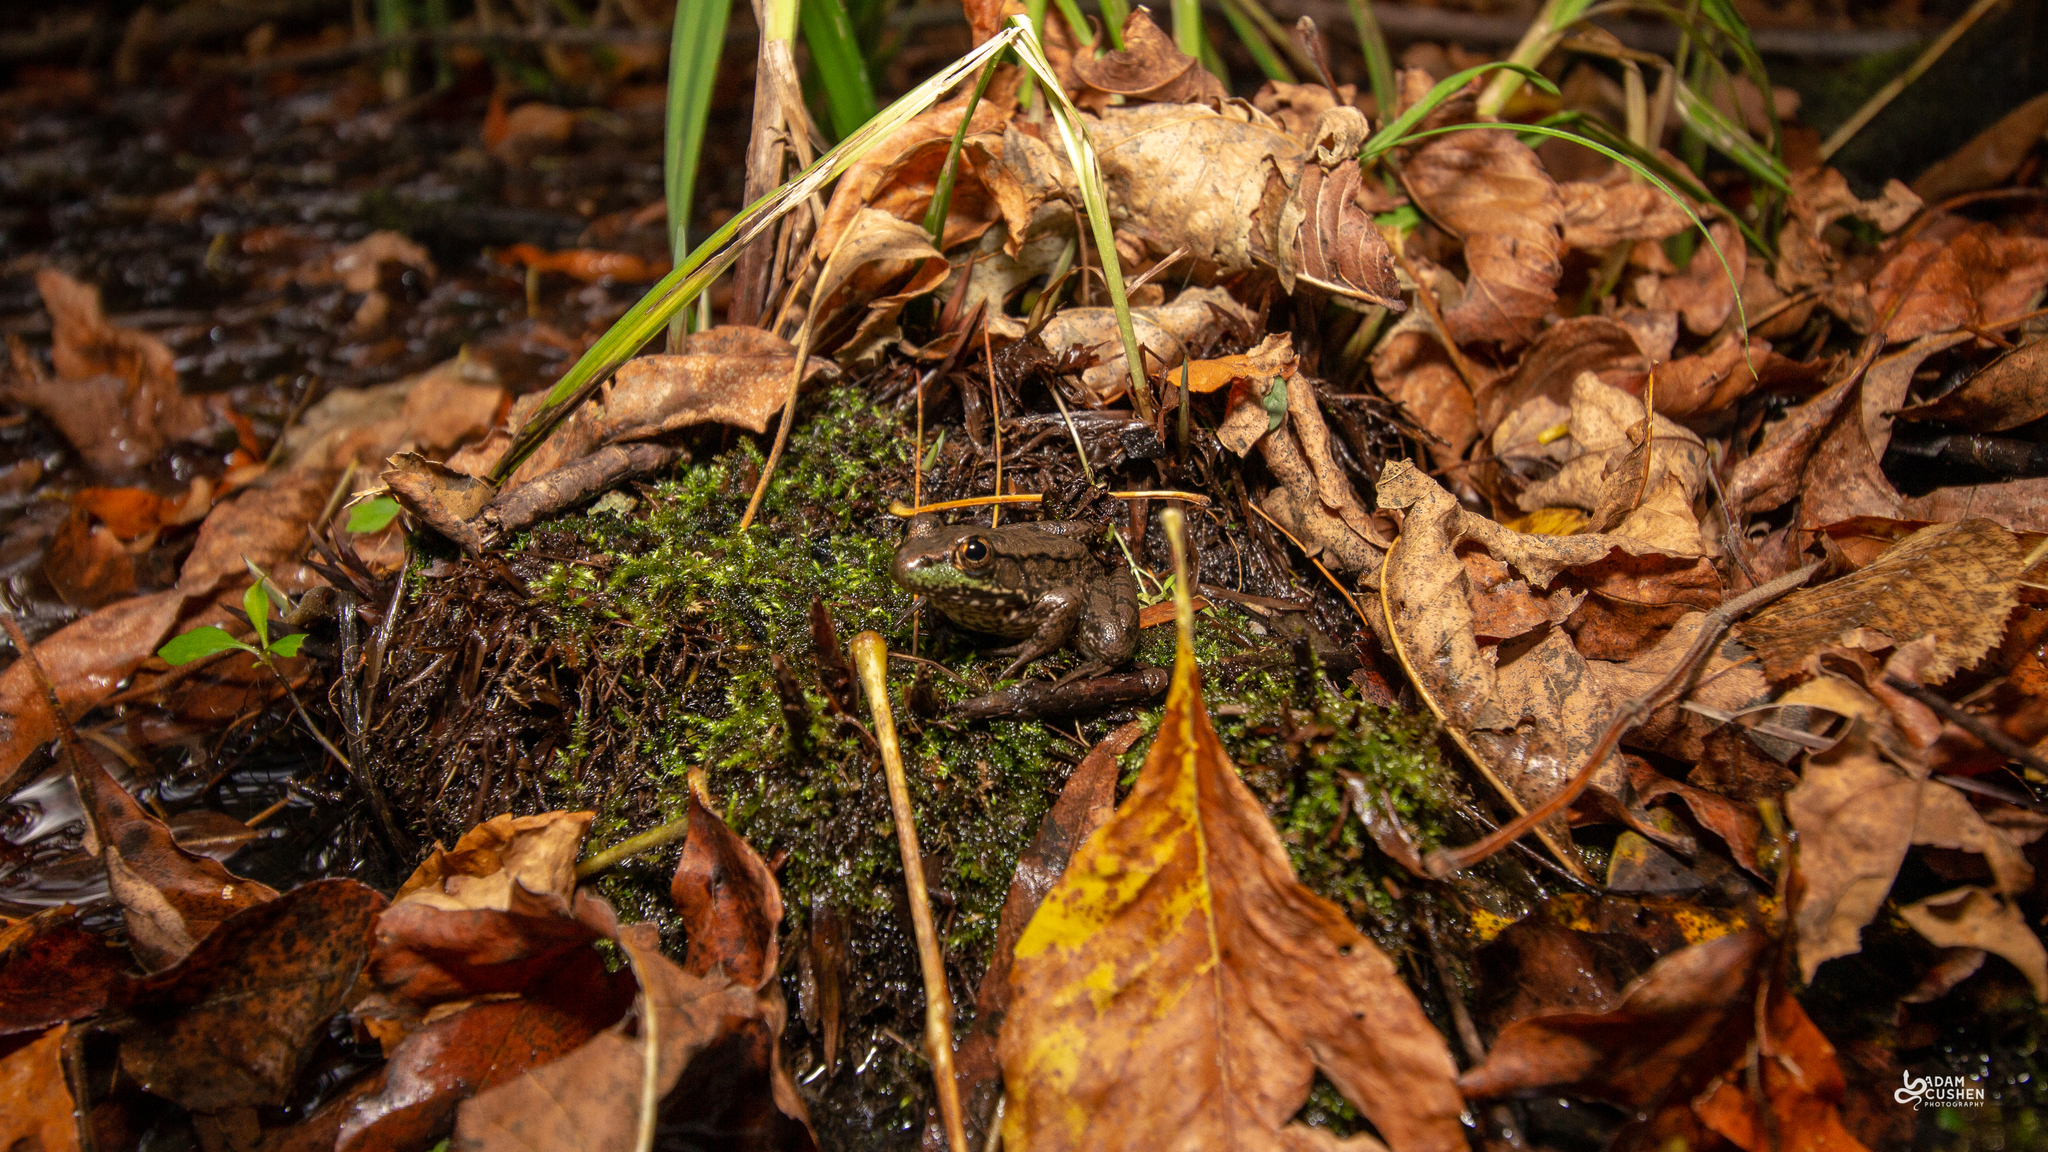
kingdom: Animalia
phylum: Chordata
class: Amphibia
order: Anura
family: Ranidae
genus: Lithobates
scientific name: Lithobates clamitans
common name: Green frog
